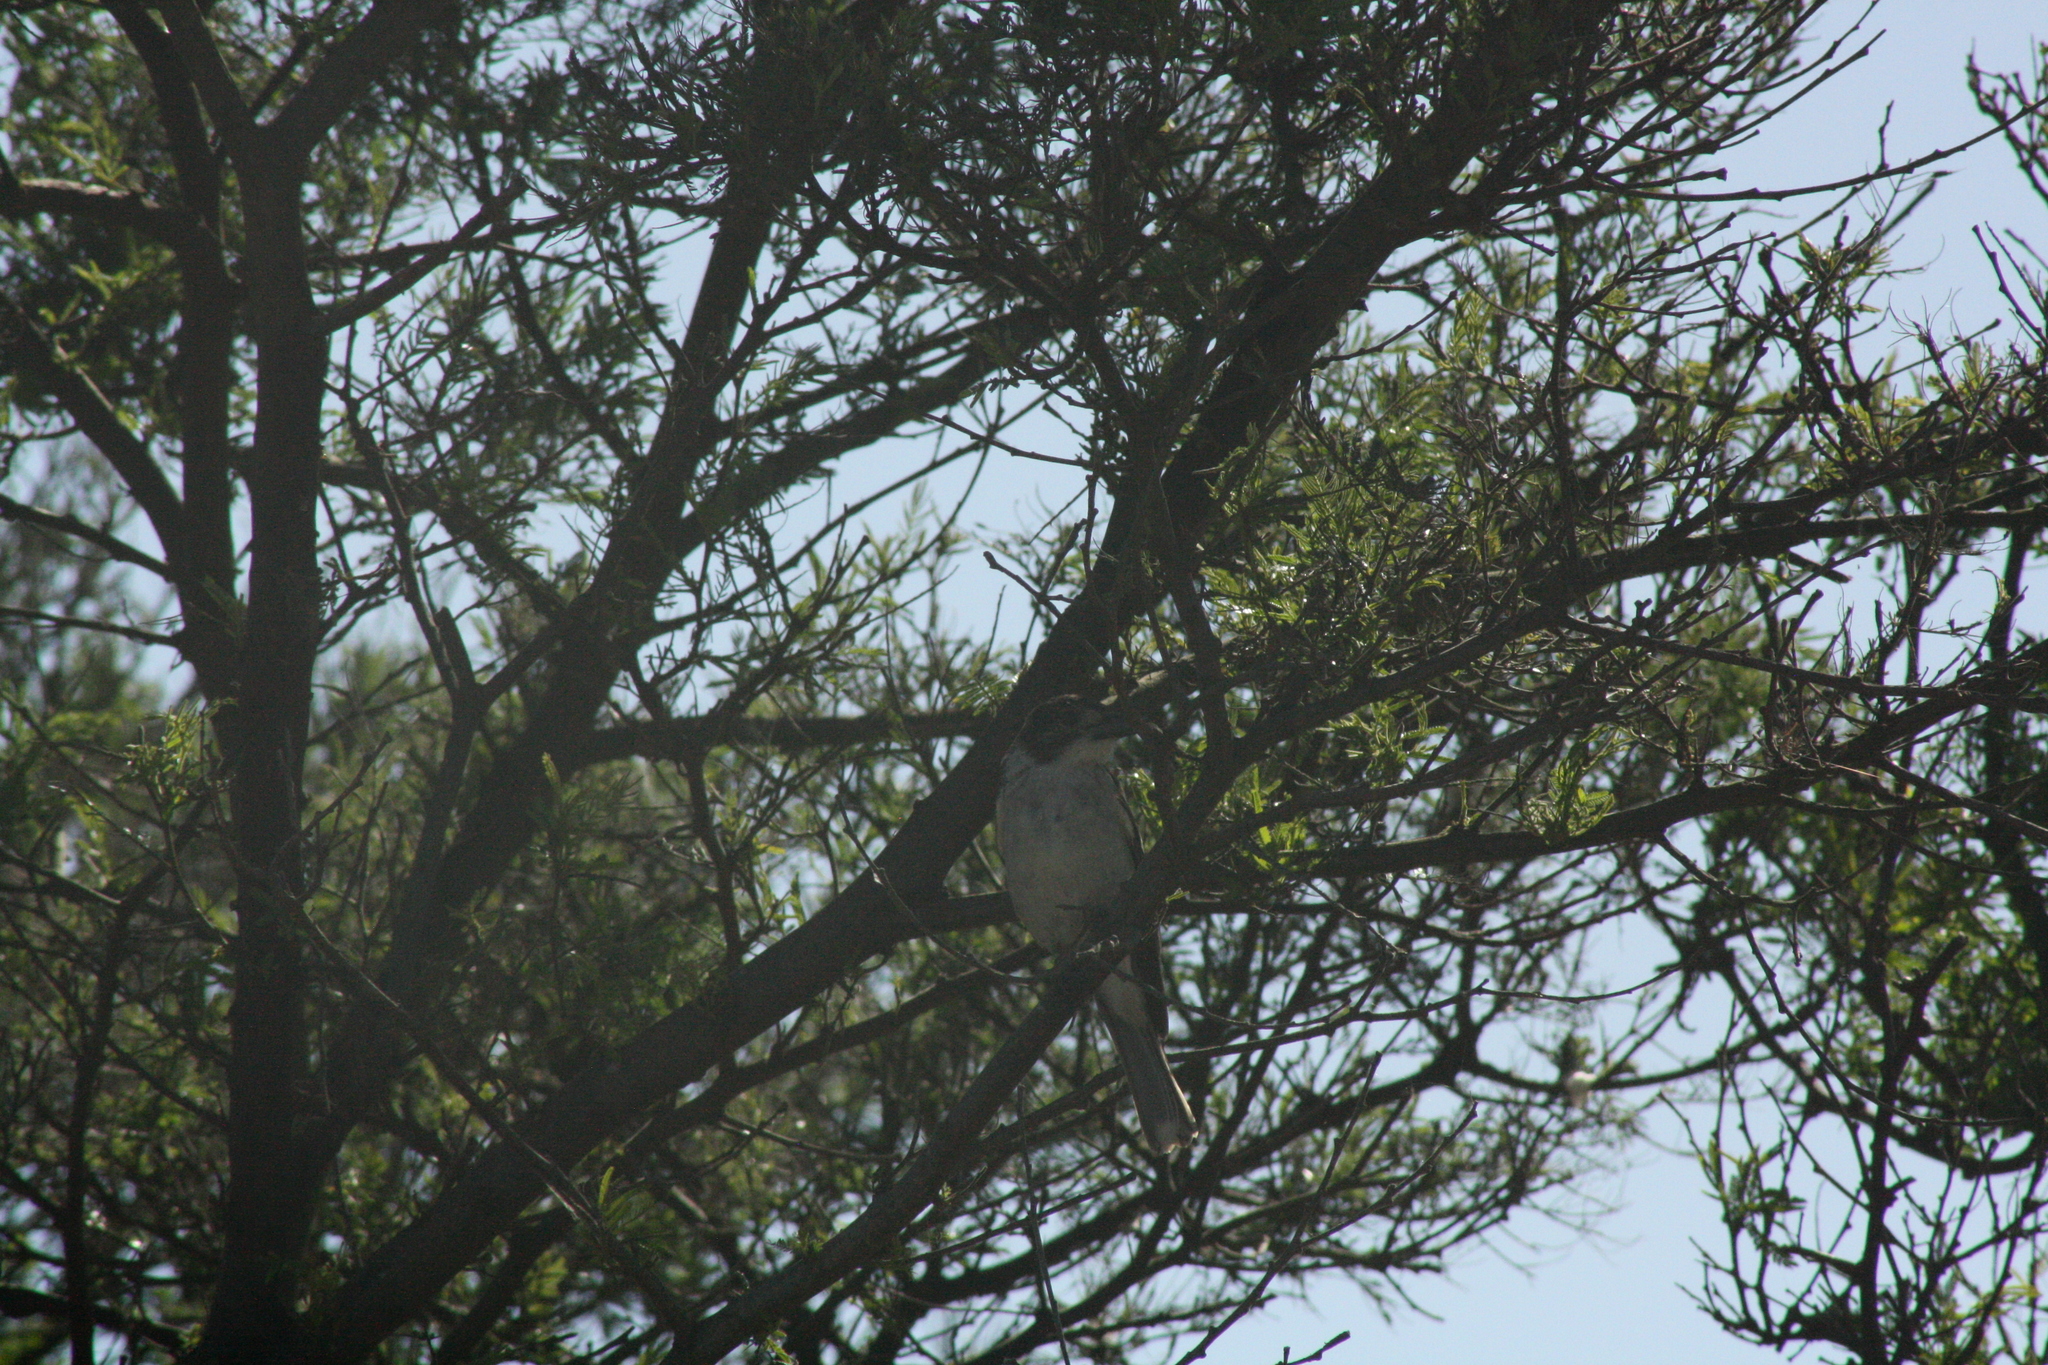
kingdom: Animalia
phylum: Chordata
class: Aves
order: Passeriformes
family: Cracticidae
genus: Cracticus
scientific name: Cracticus torquatus
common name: Grey butcherbird
